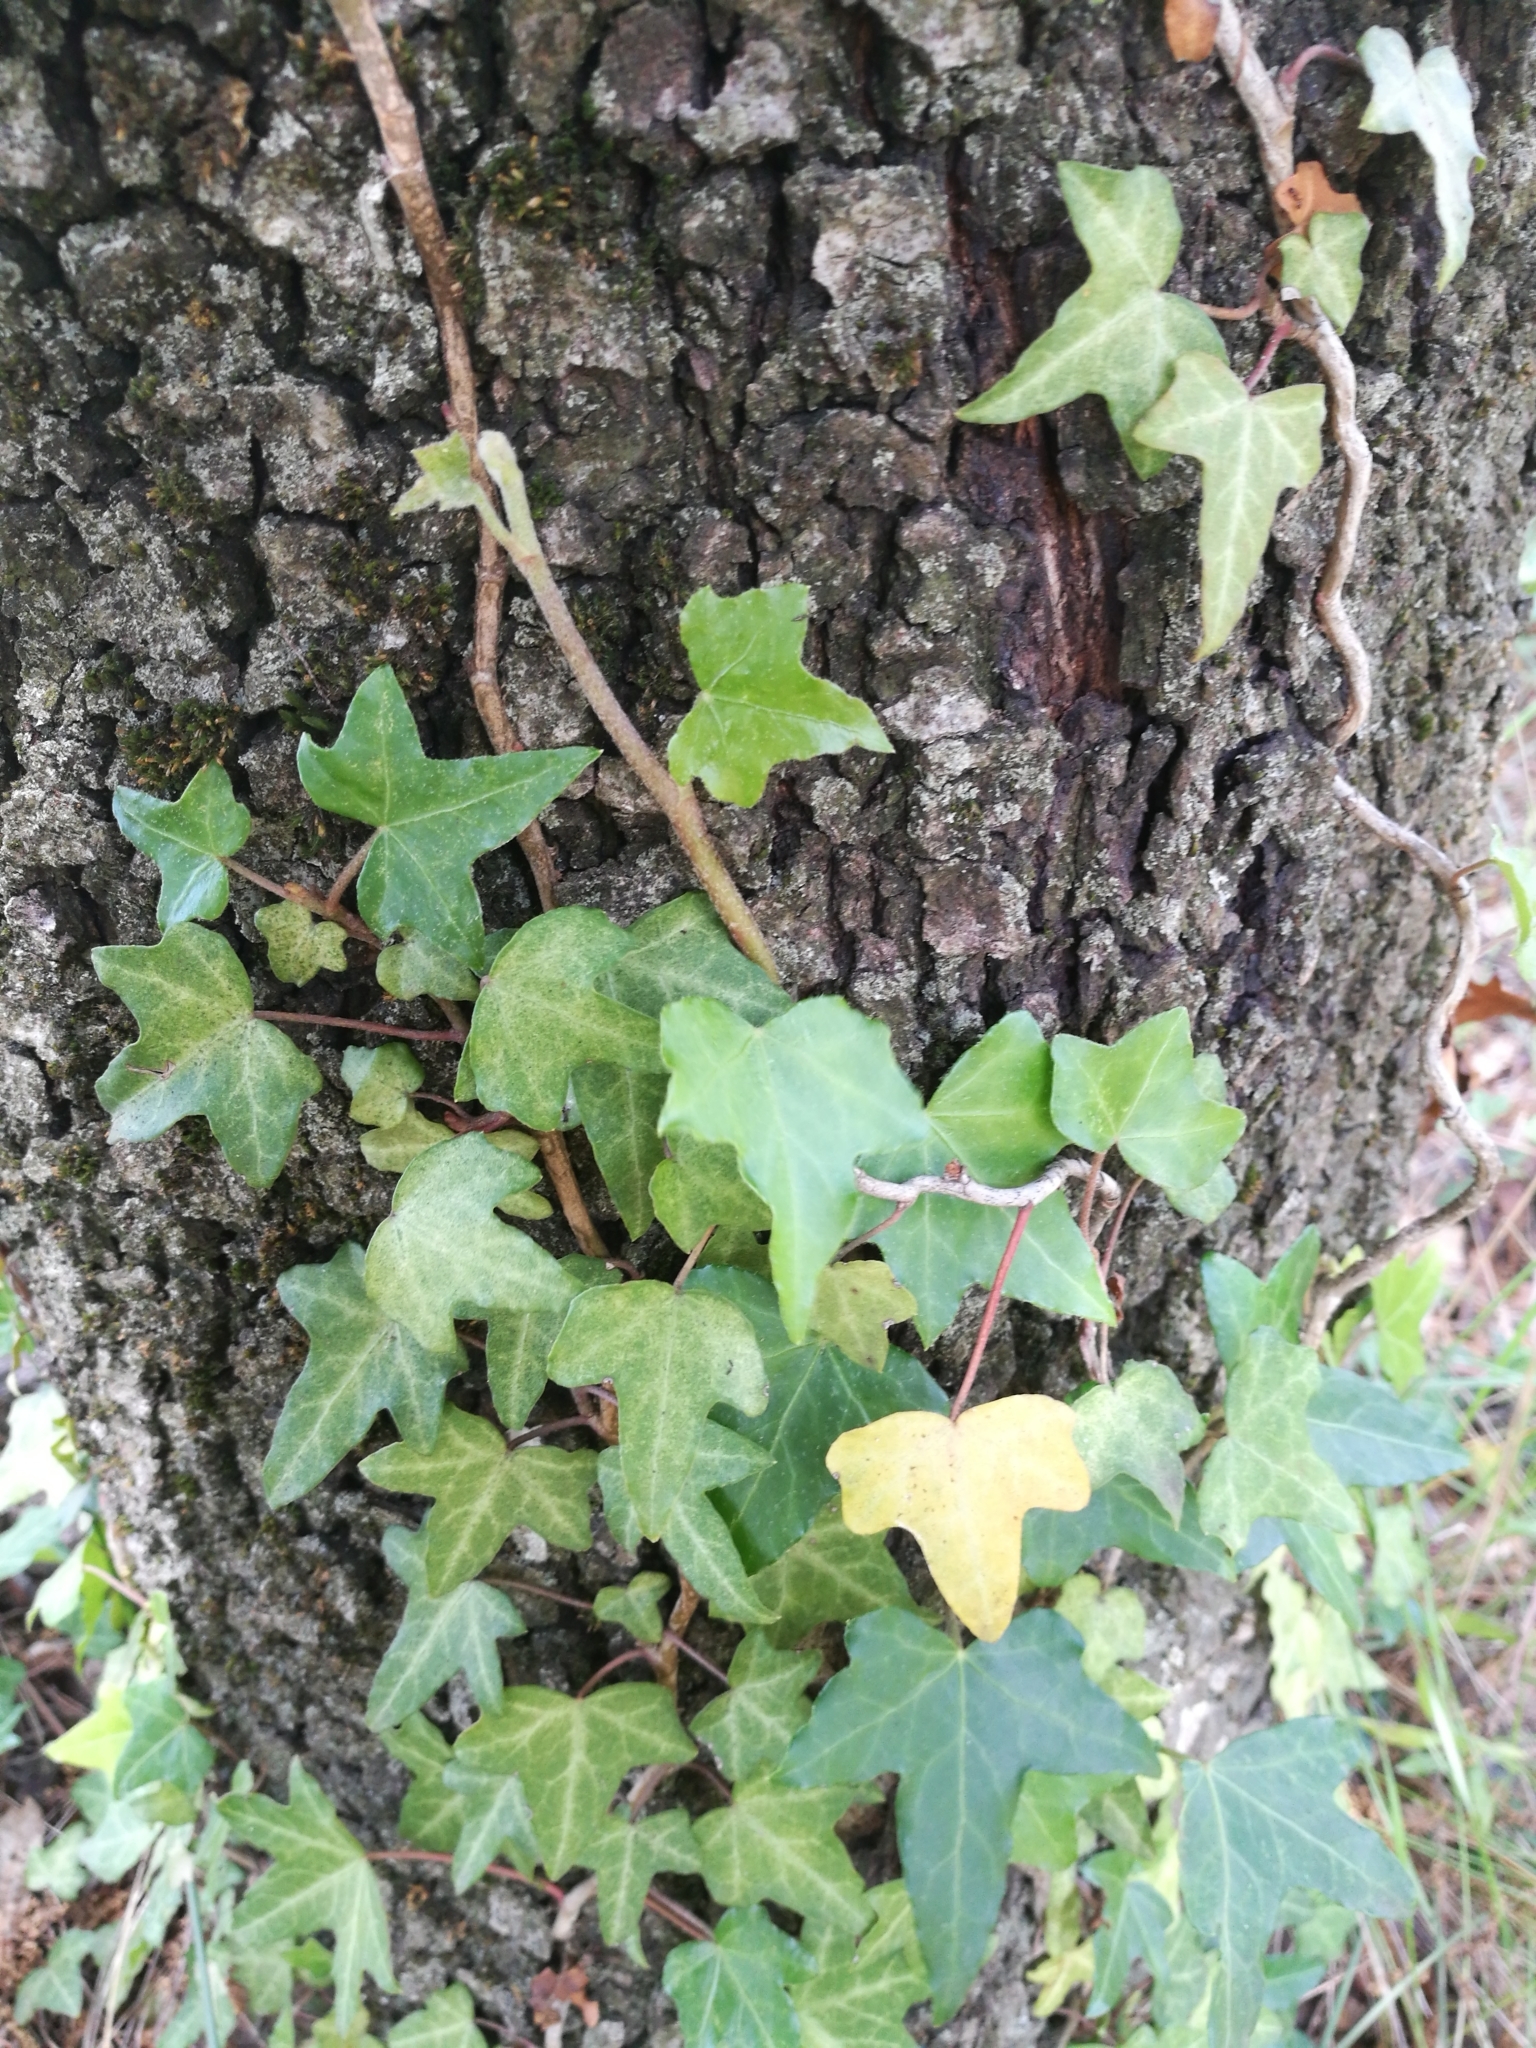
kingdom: Plantae
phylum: Tracheophyta
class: Magnoliopsida
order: Apiales
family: Araliaceae
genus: Hedera
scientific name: Hedera helix
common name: Ivy
